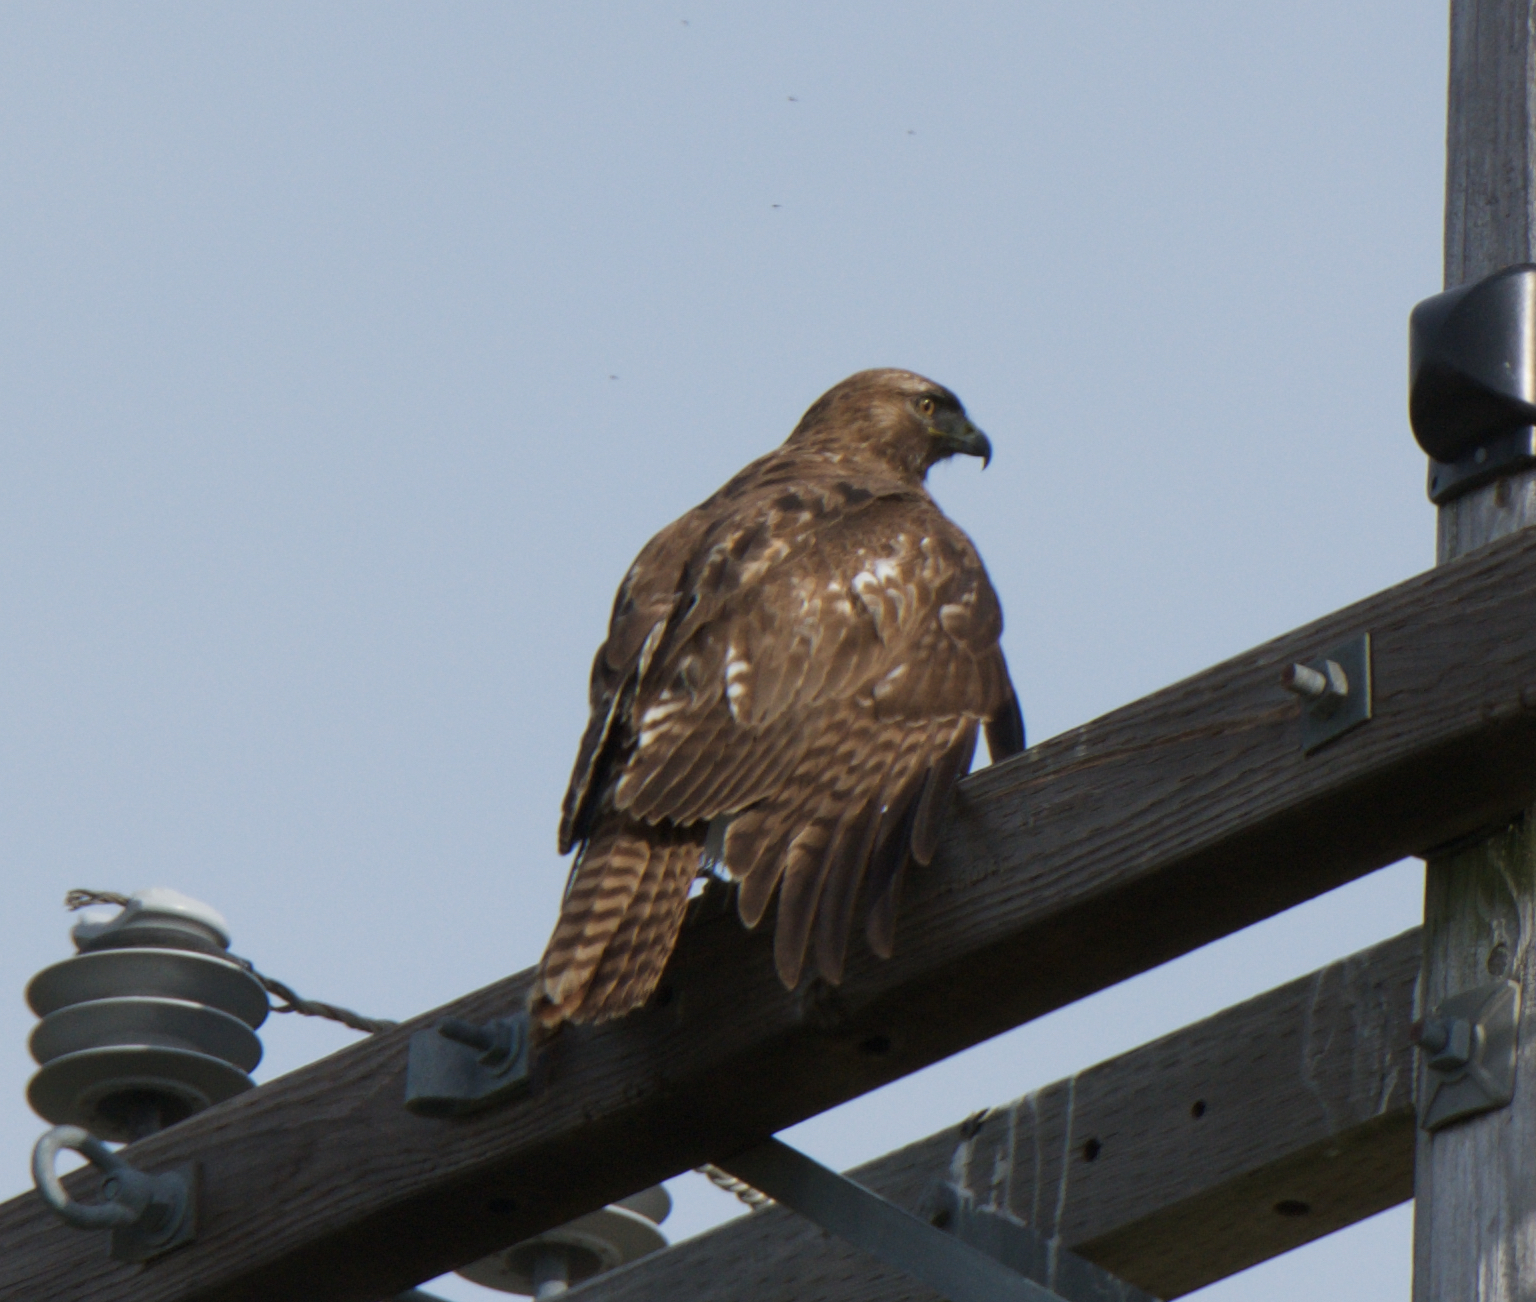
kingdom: Animalia
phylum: Chordata
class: Aves
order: Accipitriformes
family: Accipitridae
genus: Buteo
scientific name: Buteo jamaicensis
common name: Red-tailed hawk
